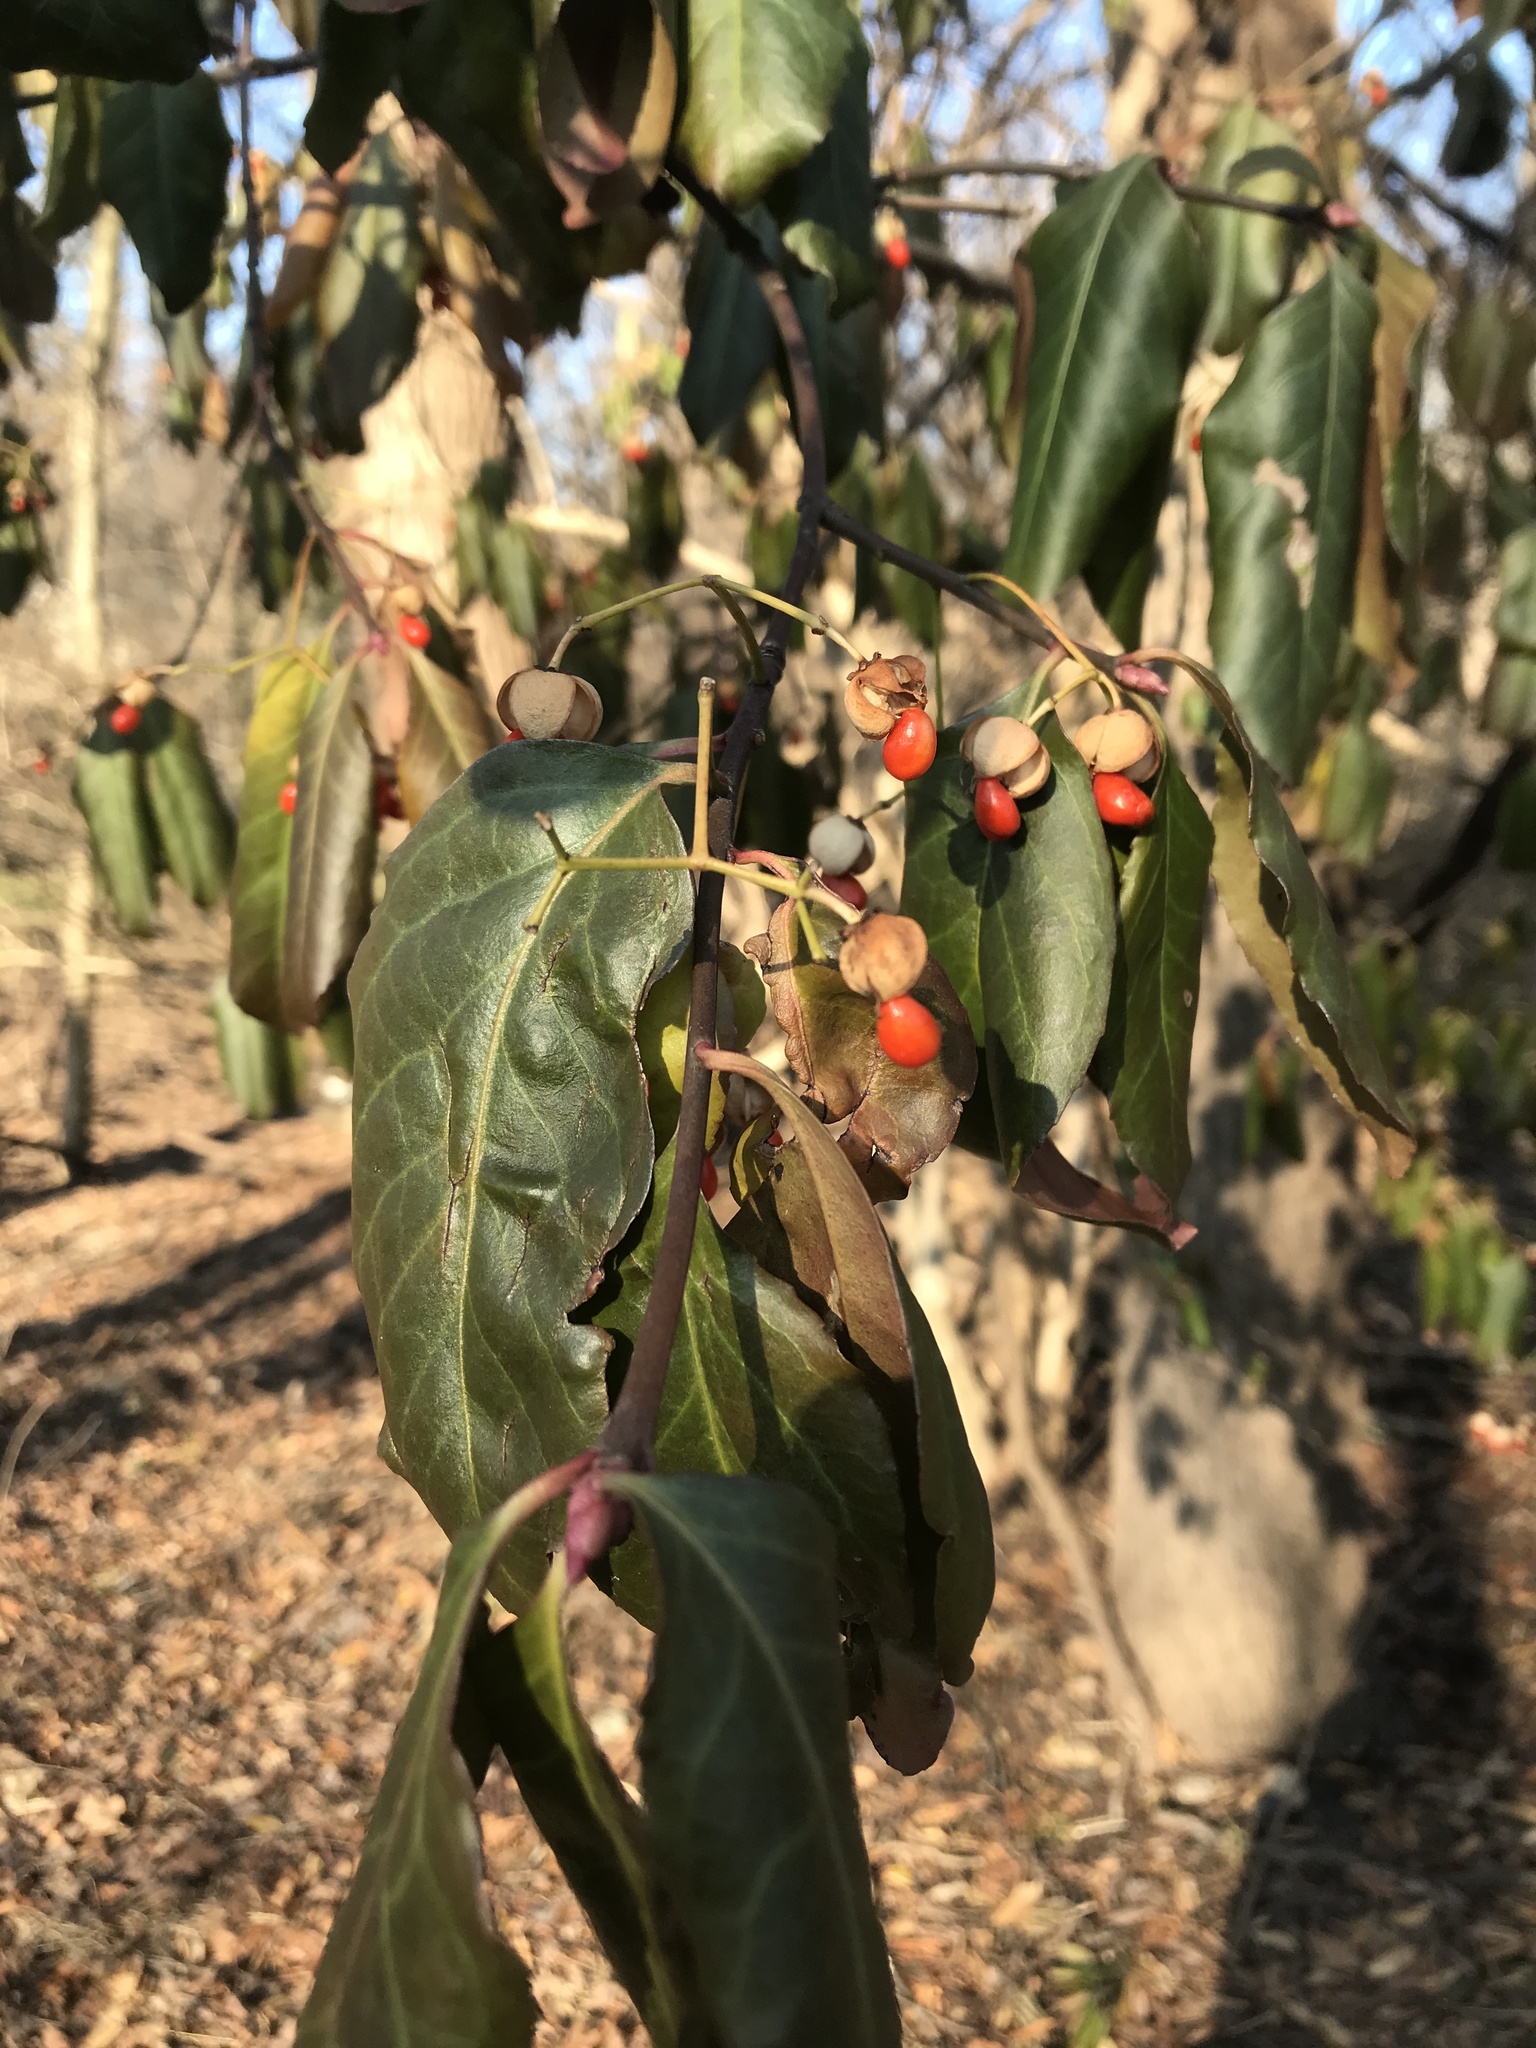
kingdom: Plantae
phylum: Tracheophyta
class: Magnoliopsida
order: Celastrales
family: Celastraceae
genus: Euonymus
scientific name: Euonymus fortunei
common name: Climbing euonymus
